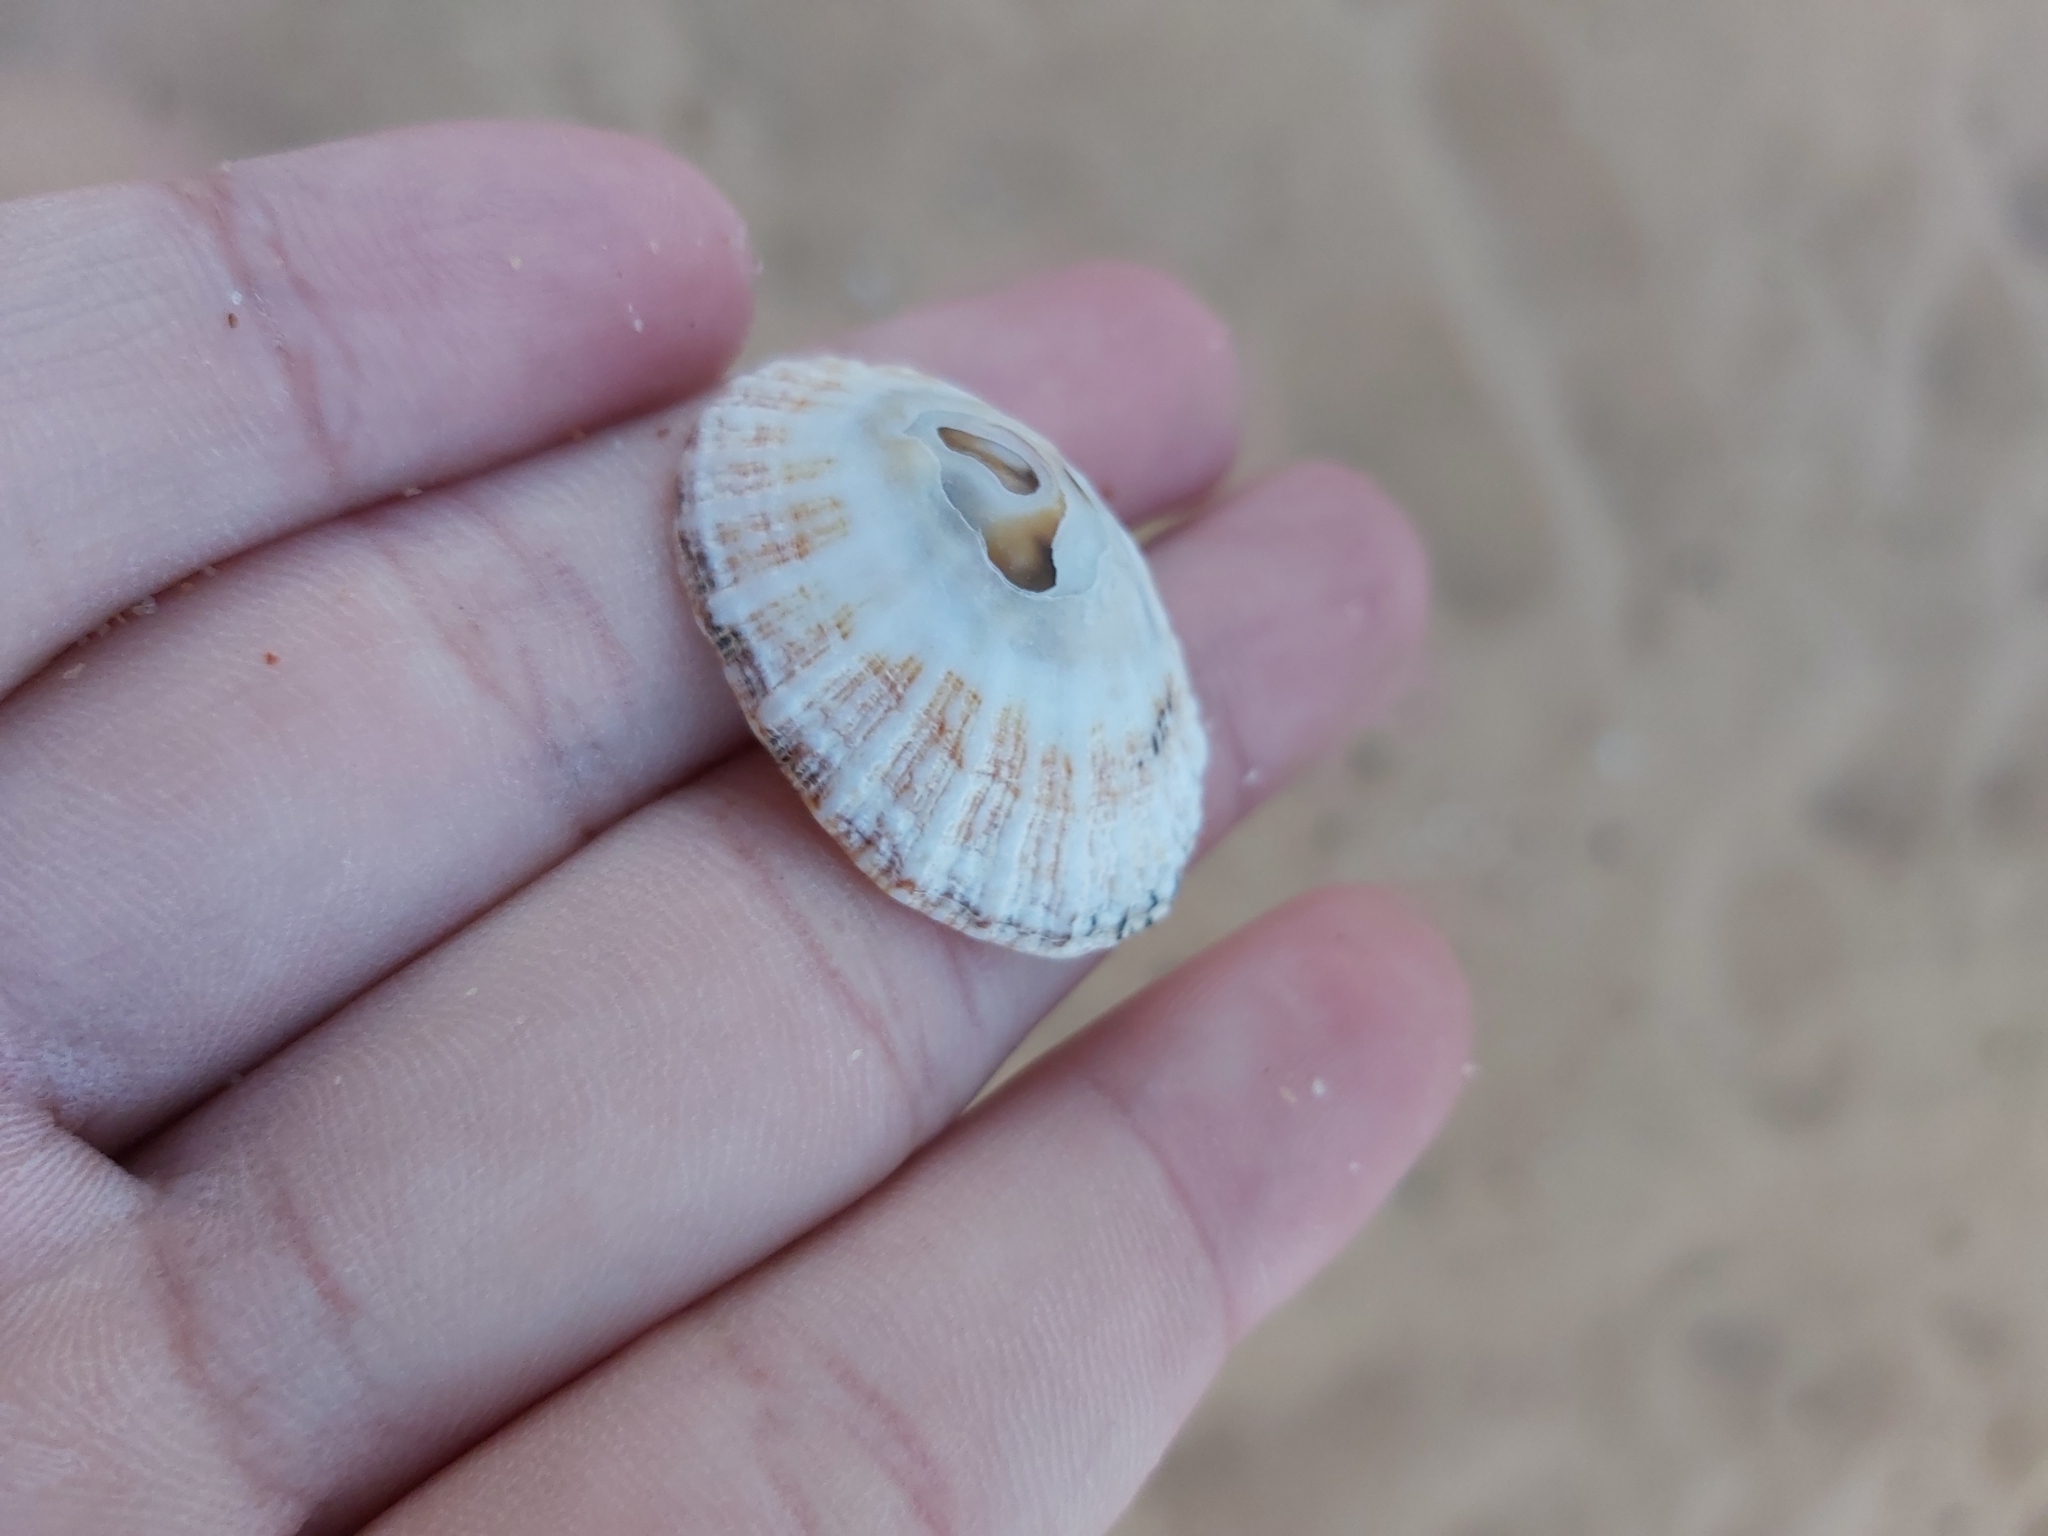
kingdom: Animalia
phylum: Mollusca
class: Gastropoda
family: Patellidae
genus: Scutellastra
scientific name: Scutellastra peronii
